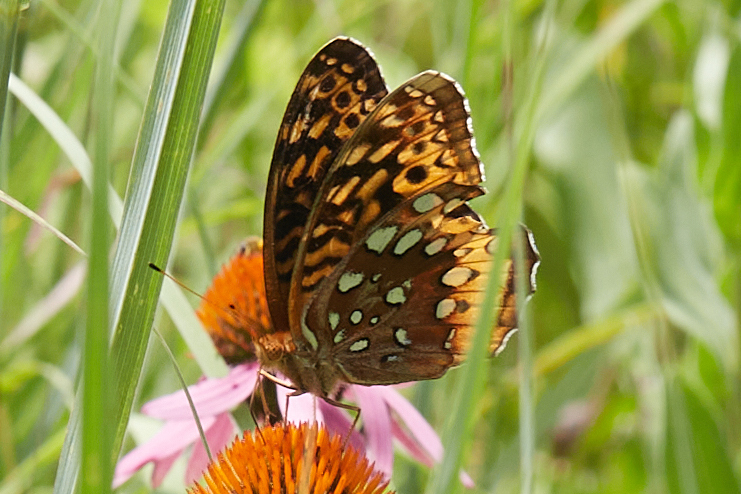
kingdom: Animalia
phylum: Arthropoda
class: Insecta
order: Lepidoptera
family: Nymphalidae
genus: Speyeria
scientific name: Speyeria cybele
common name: Great spangled fritillary
